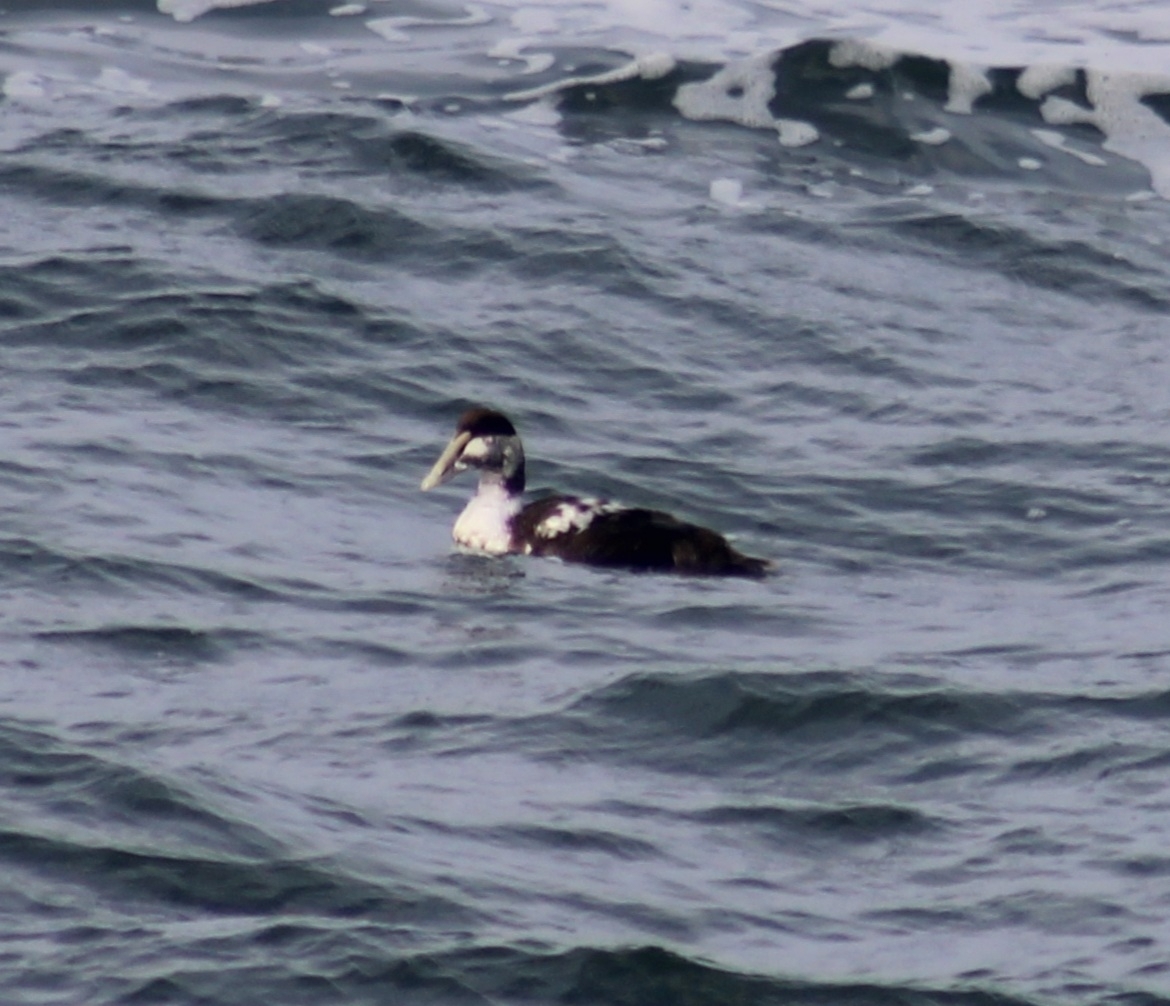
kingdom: Animalia
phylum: Chordata
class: Aves
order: Anseriformes
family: Anatidae
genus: Somateria
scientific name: Somateria mollissima
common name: Common eider
